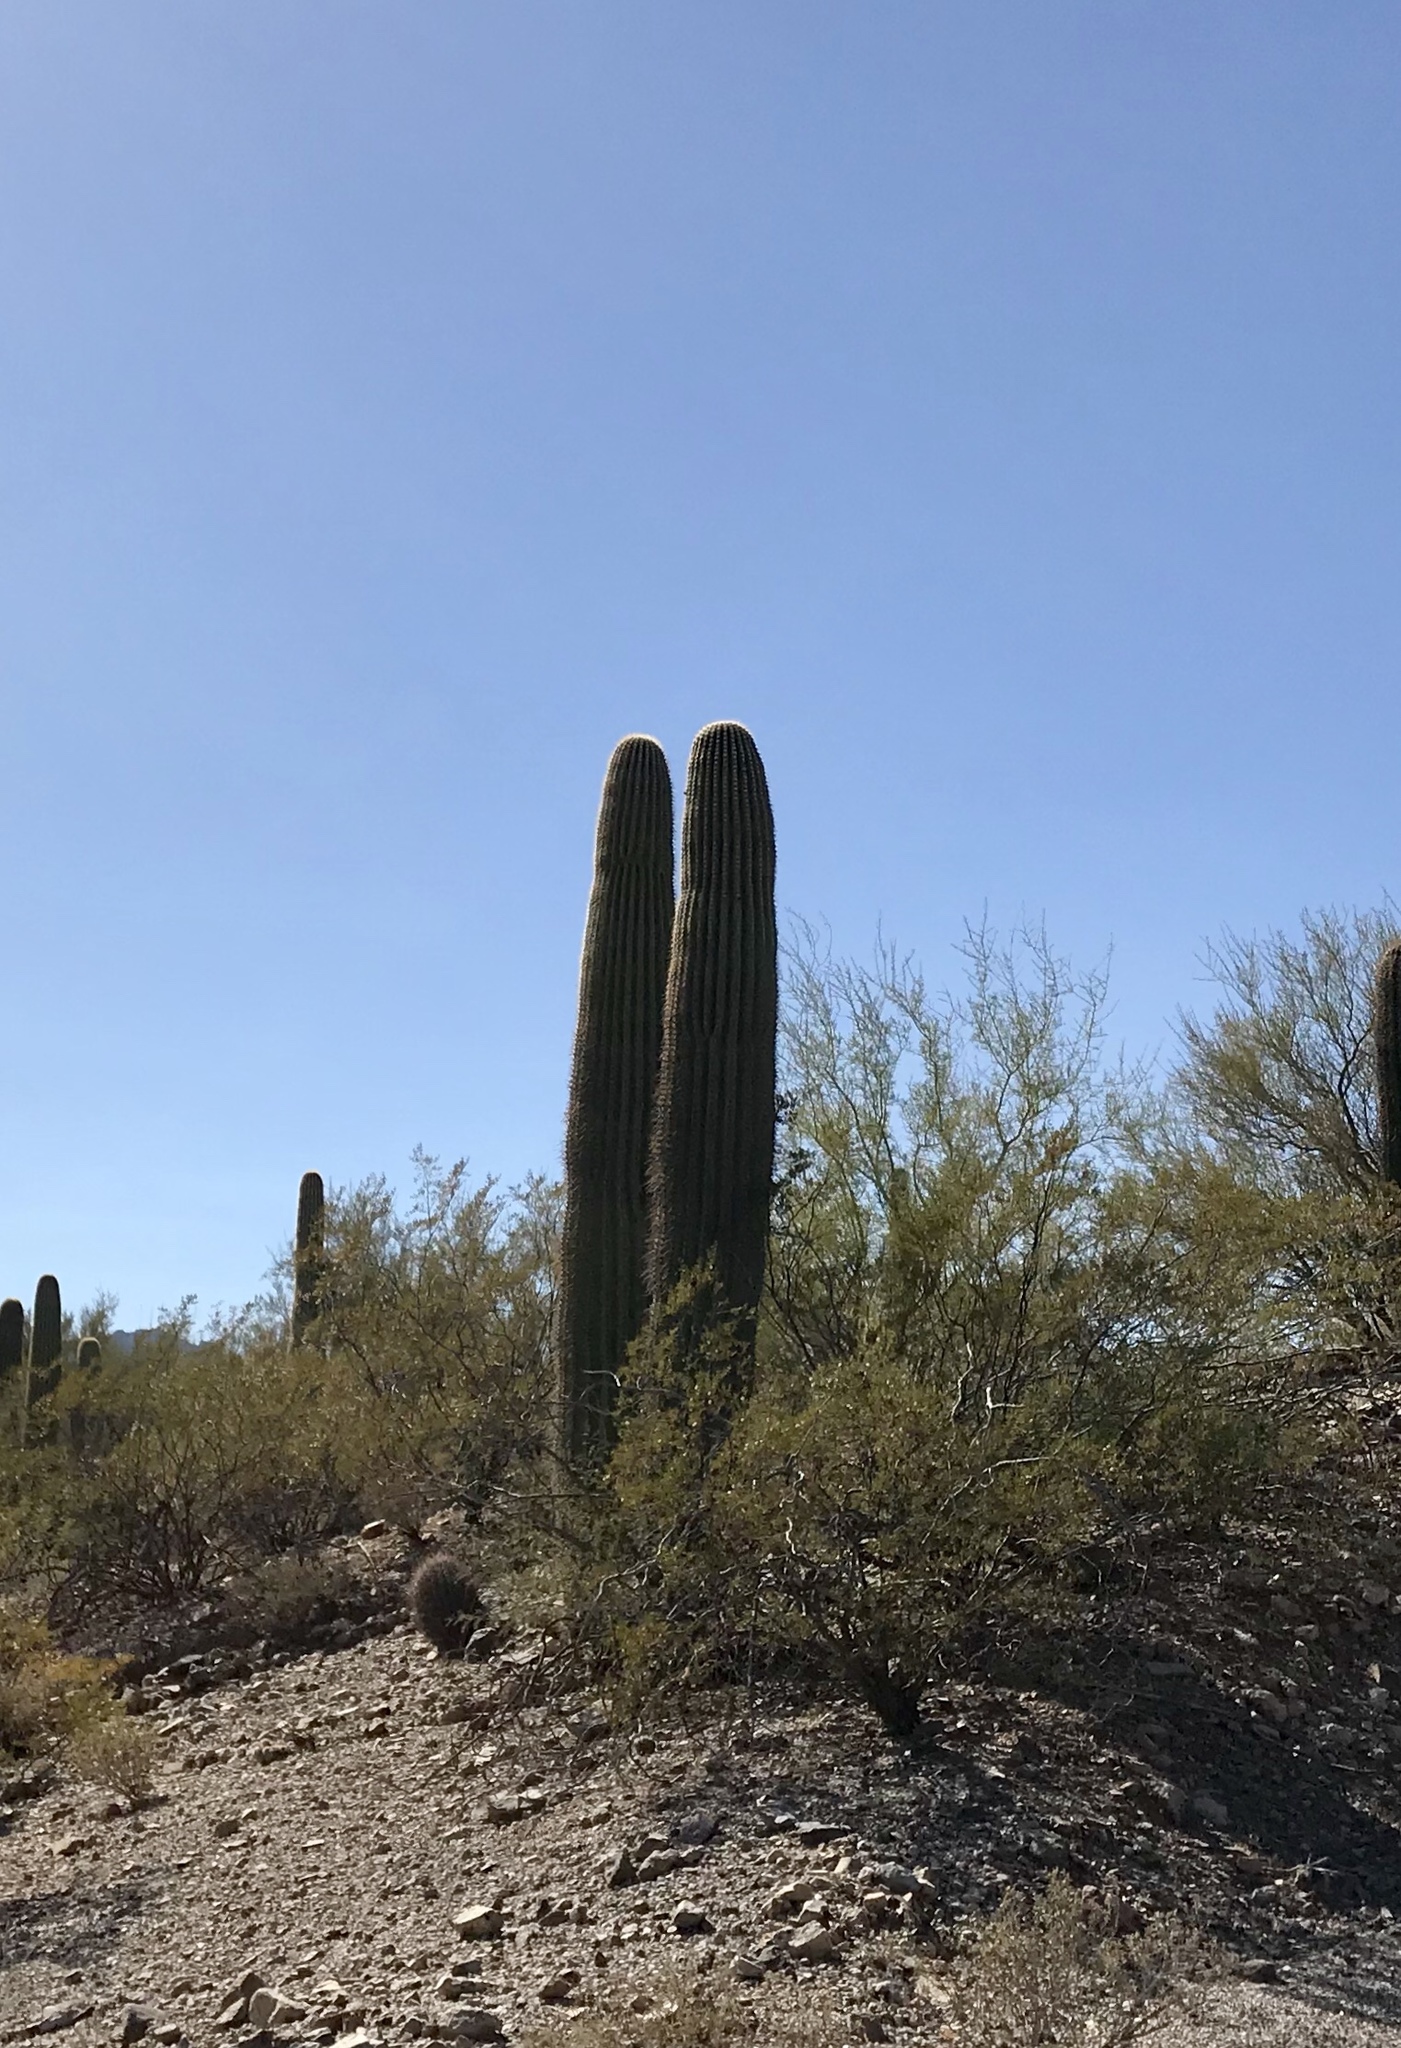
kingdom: Plantae
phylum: Tracheophyta
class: Magnoliopsida
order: Caryophyllales
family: Cactaceae
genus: Carnegiea
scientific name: Carnegiea gigantea
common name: Saguaro
